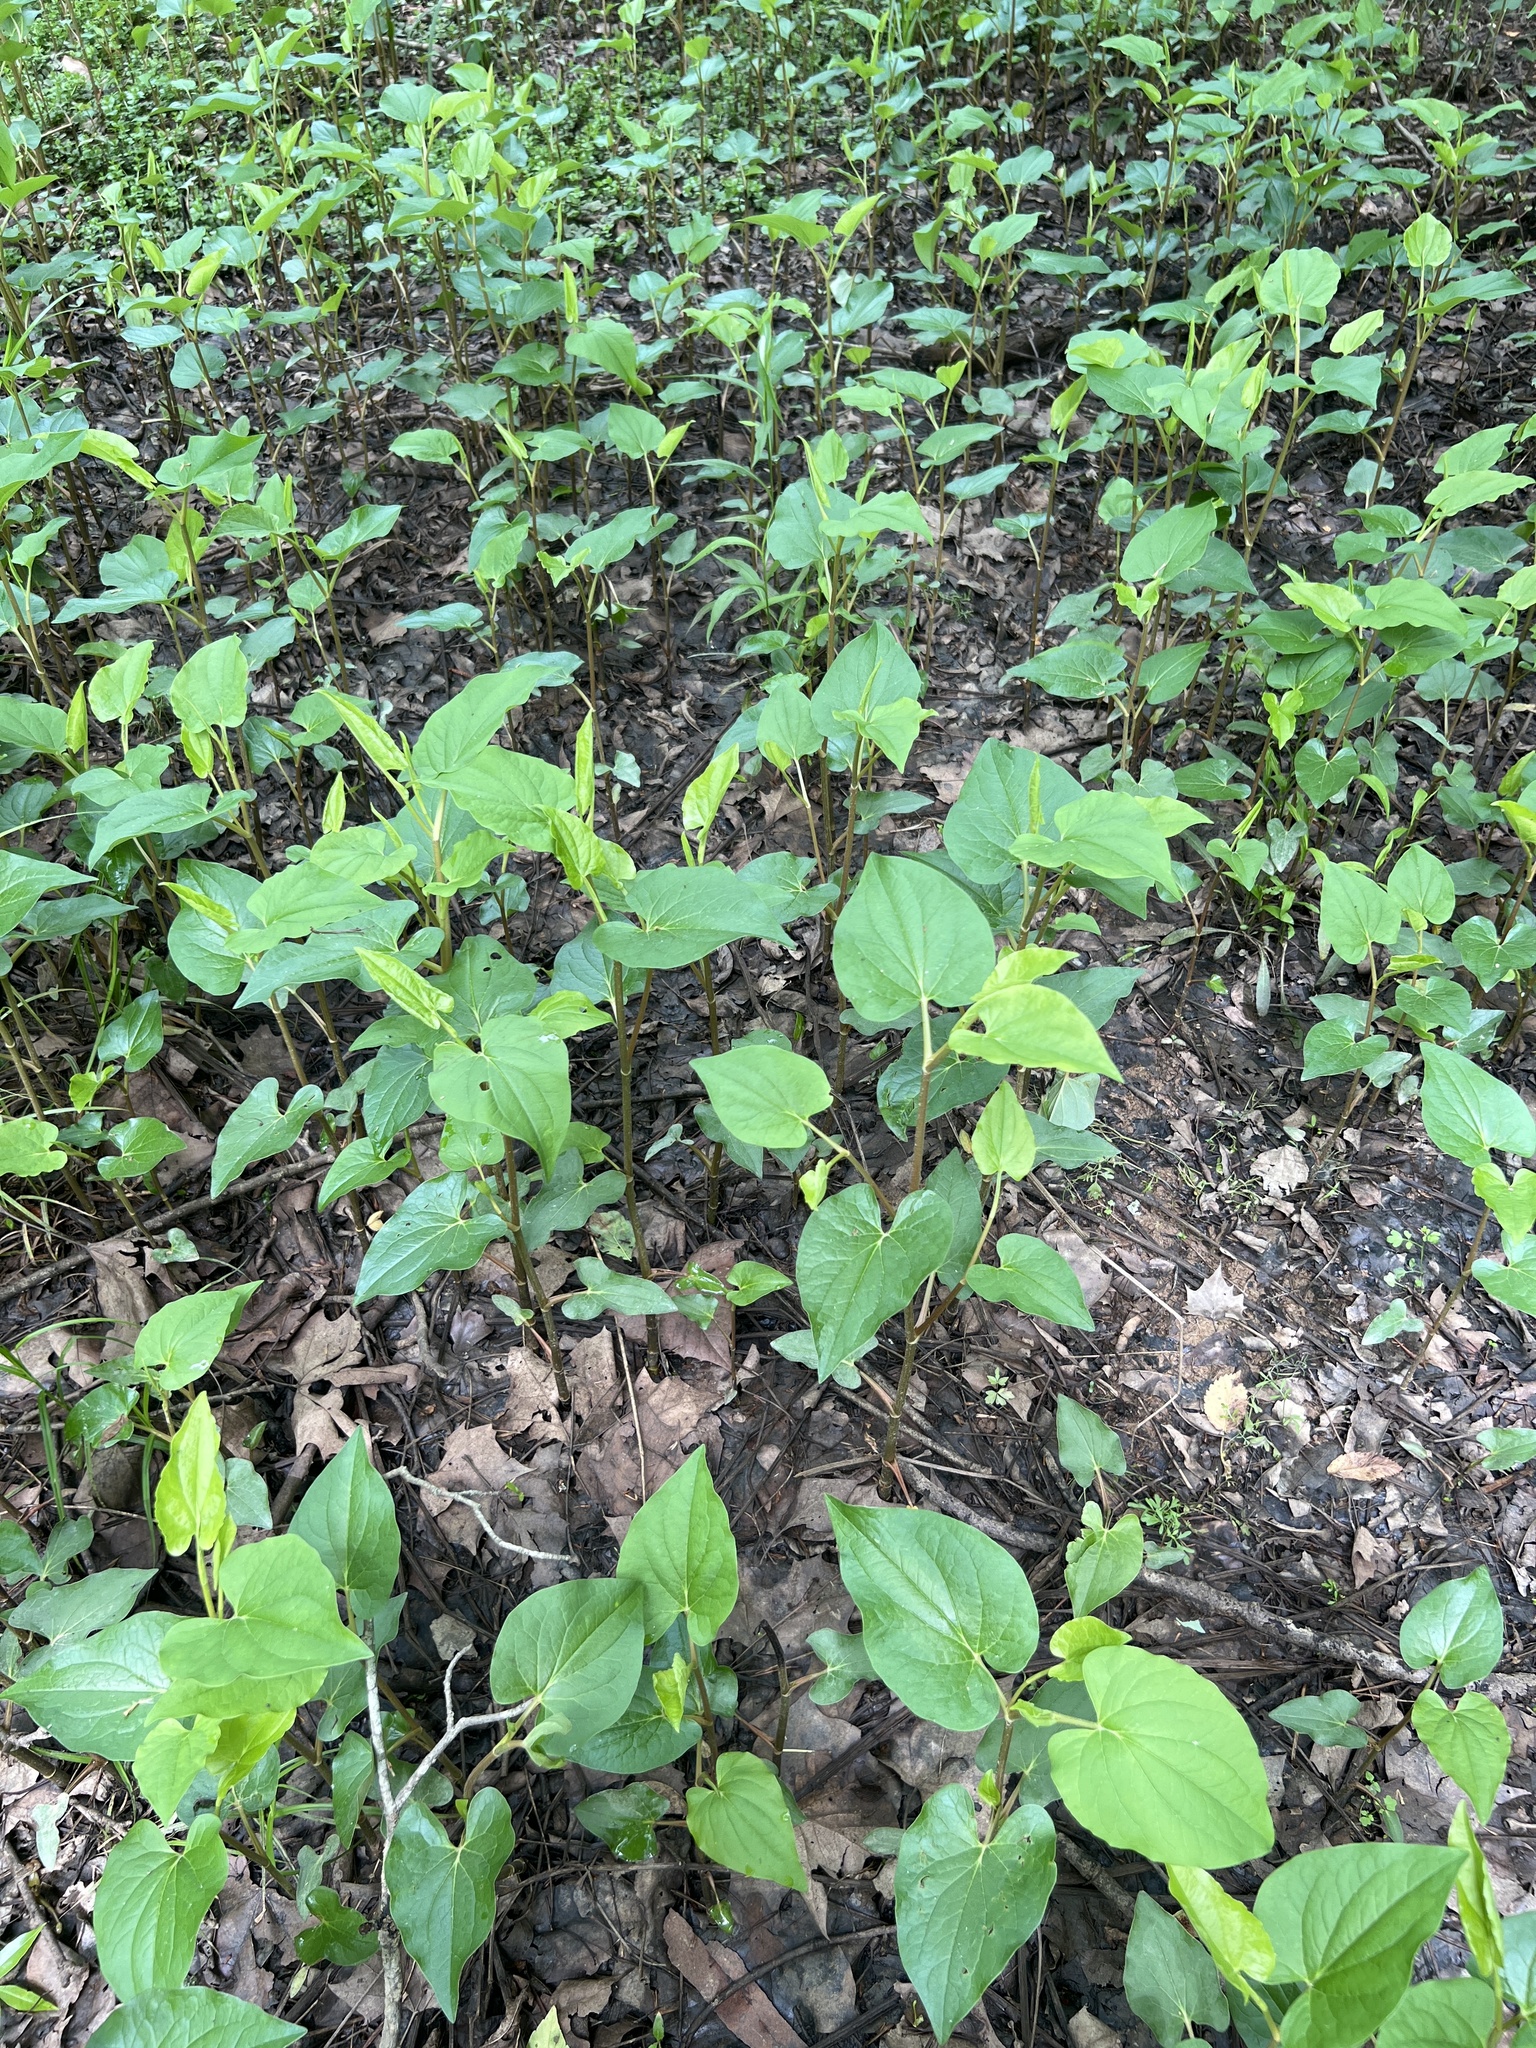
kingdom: Plantae
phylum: Tracheophyta
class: Magnoliopsida
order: Piperales
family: Saururaceae
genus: Saururus
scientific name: Saururus cernuus
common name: Lizard's-tail
